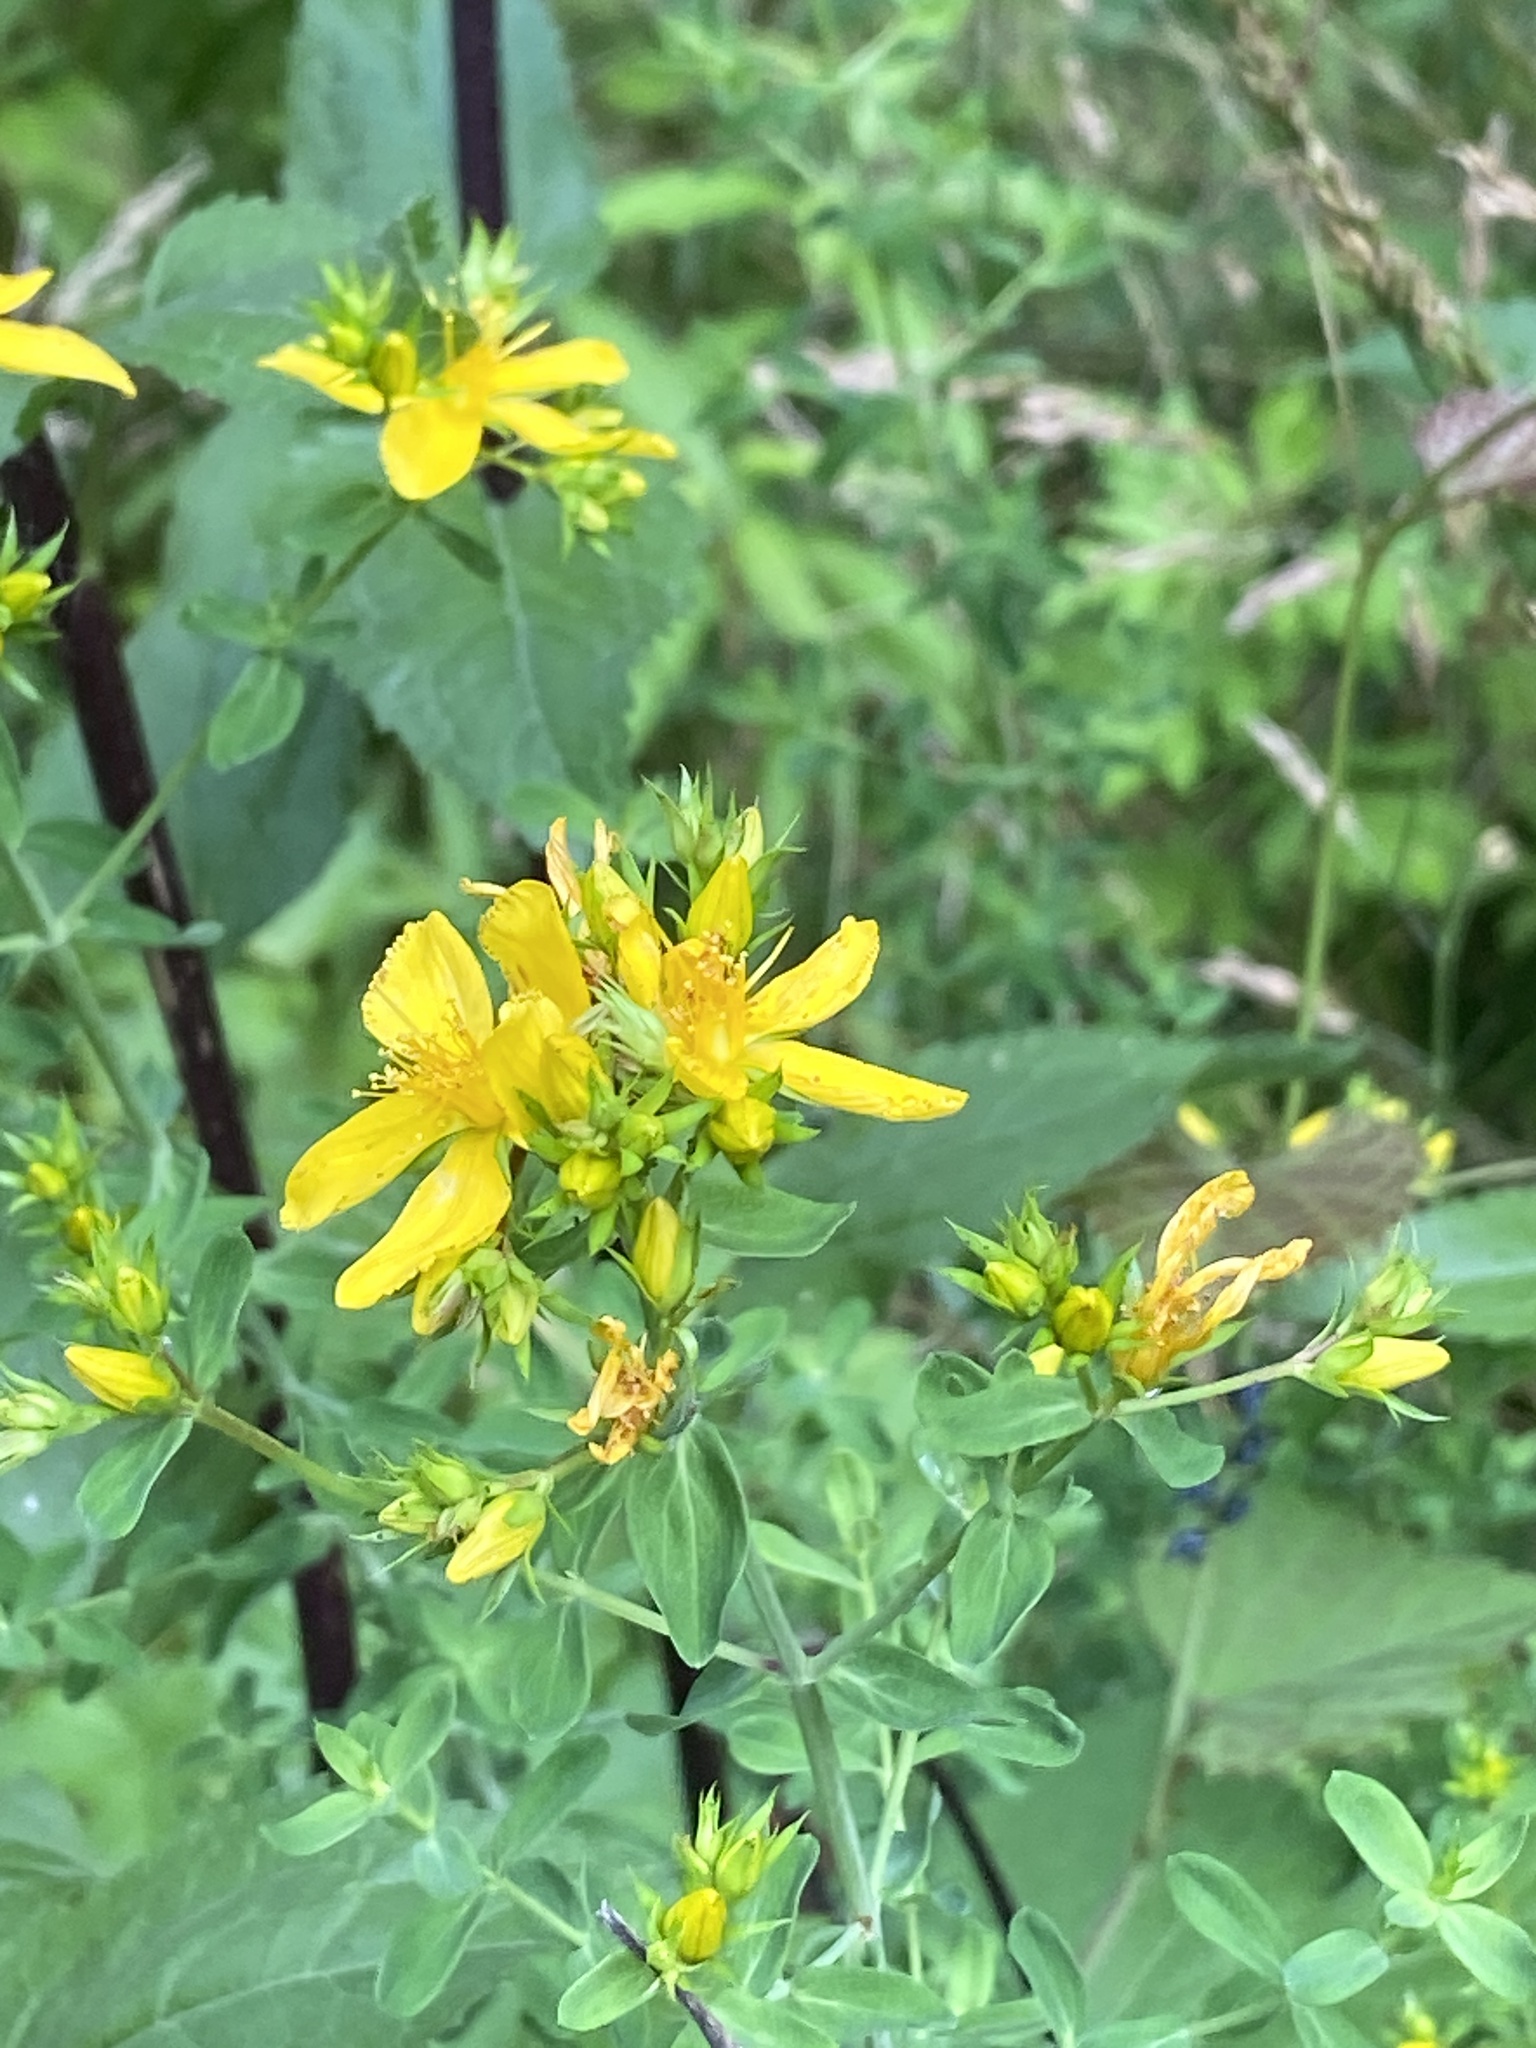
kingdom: Plantae
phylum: Tracheophyta
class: Magnoliopsida
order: Malpighiales
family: Hypericaceae
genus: Hypericum
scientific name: Hypericum perforatum
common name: Common st. johnswort
